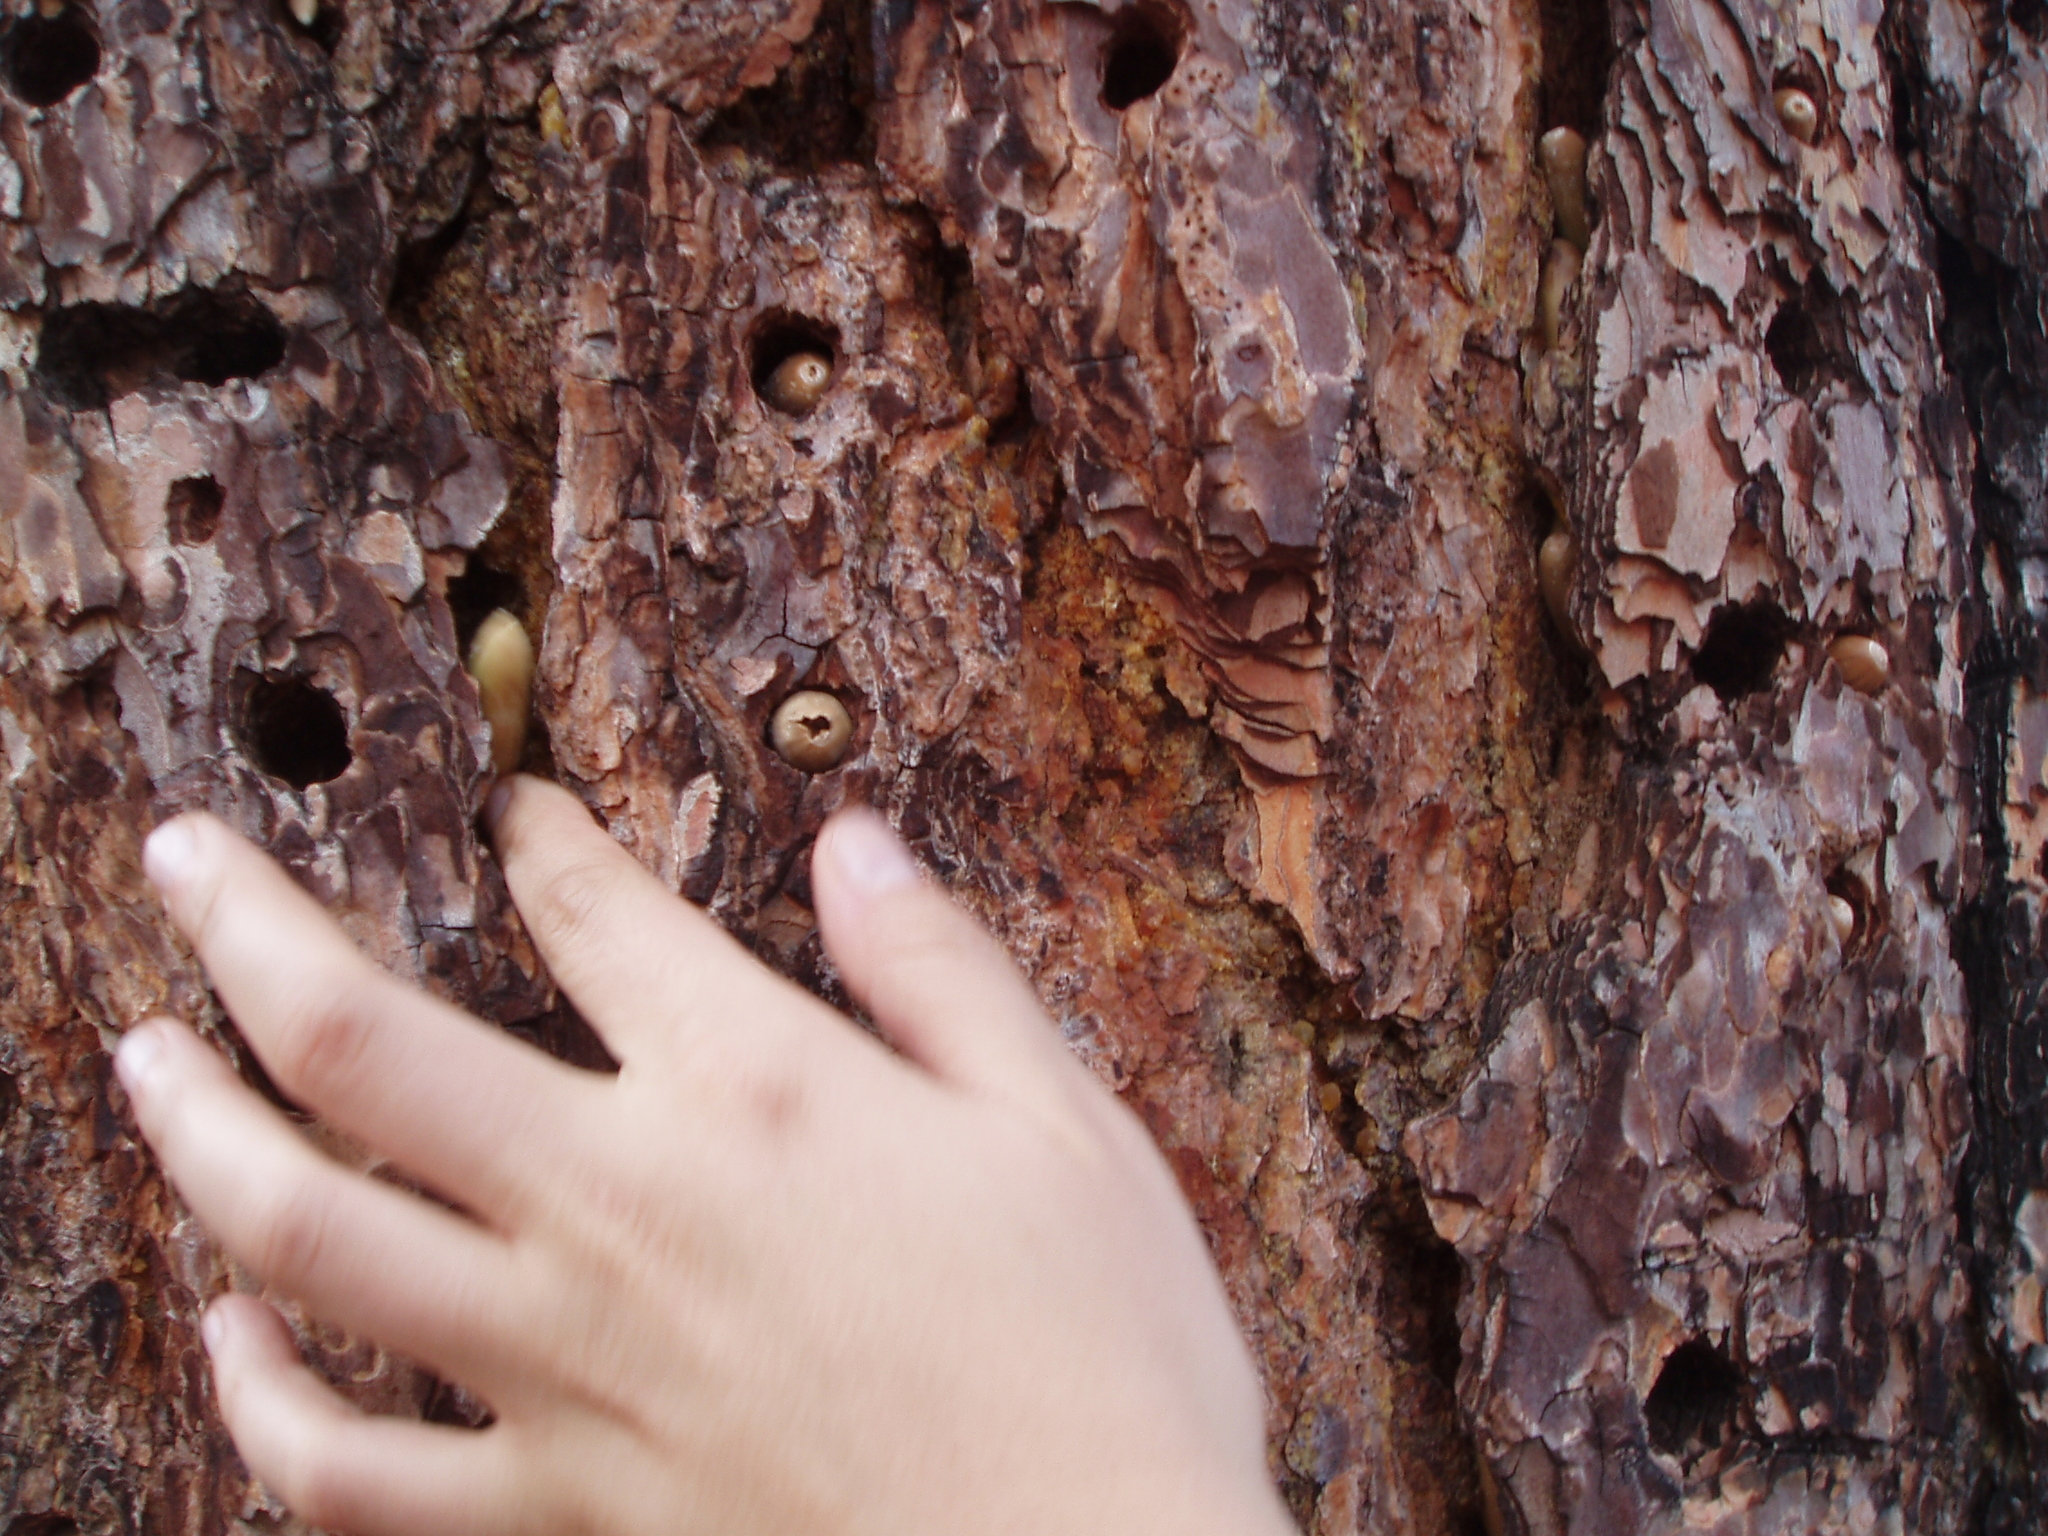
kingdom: Animalia
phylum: Chordata
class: Aves
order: Piciformes
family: Picidae
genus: Melanerpes
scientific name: Melanerpes formicivorus
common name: Acorn woodpecker
